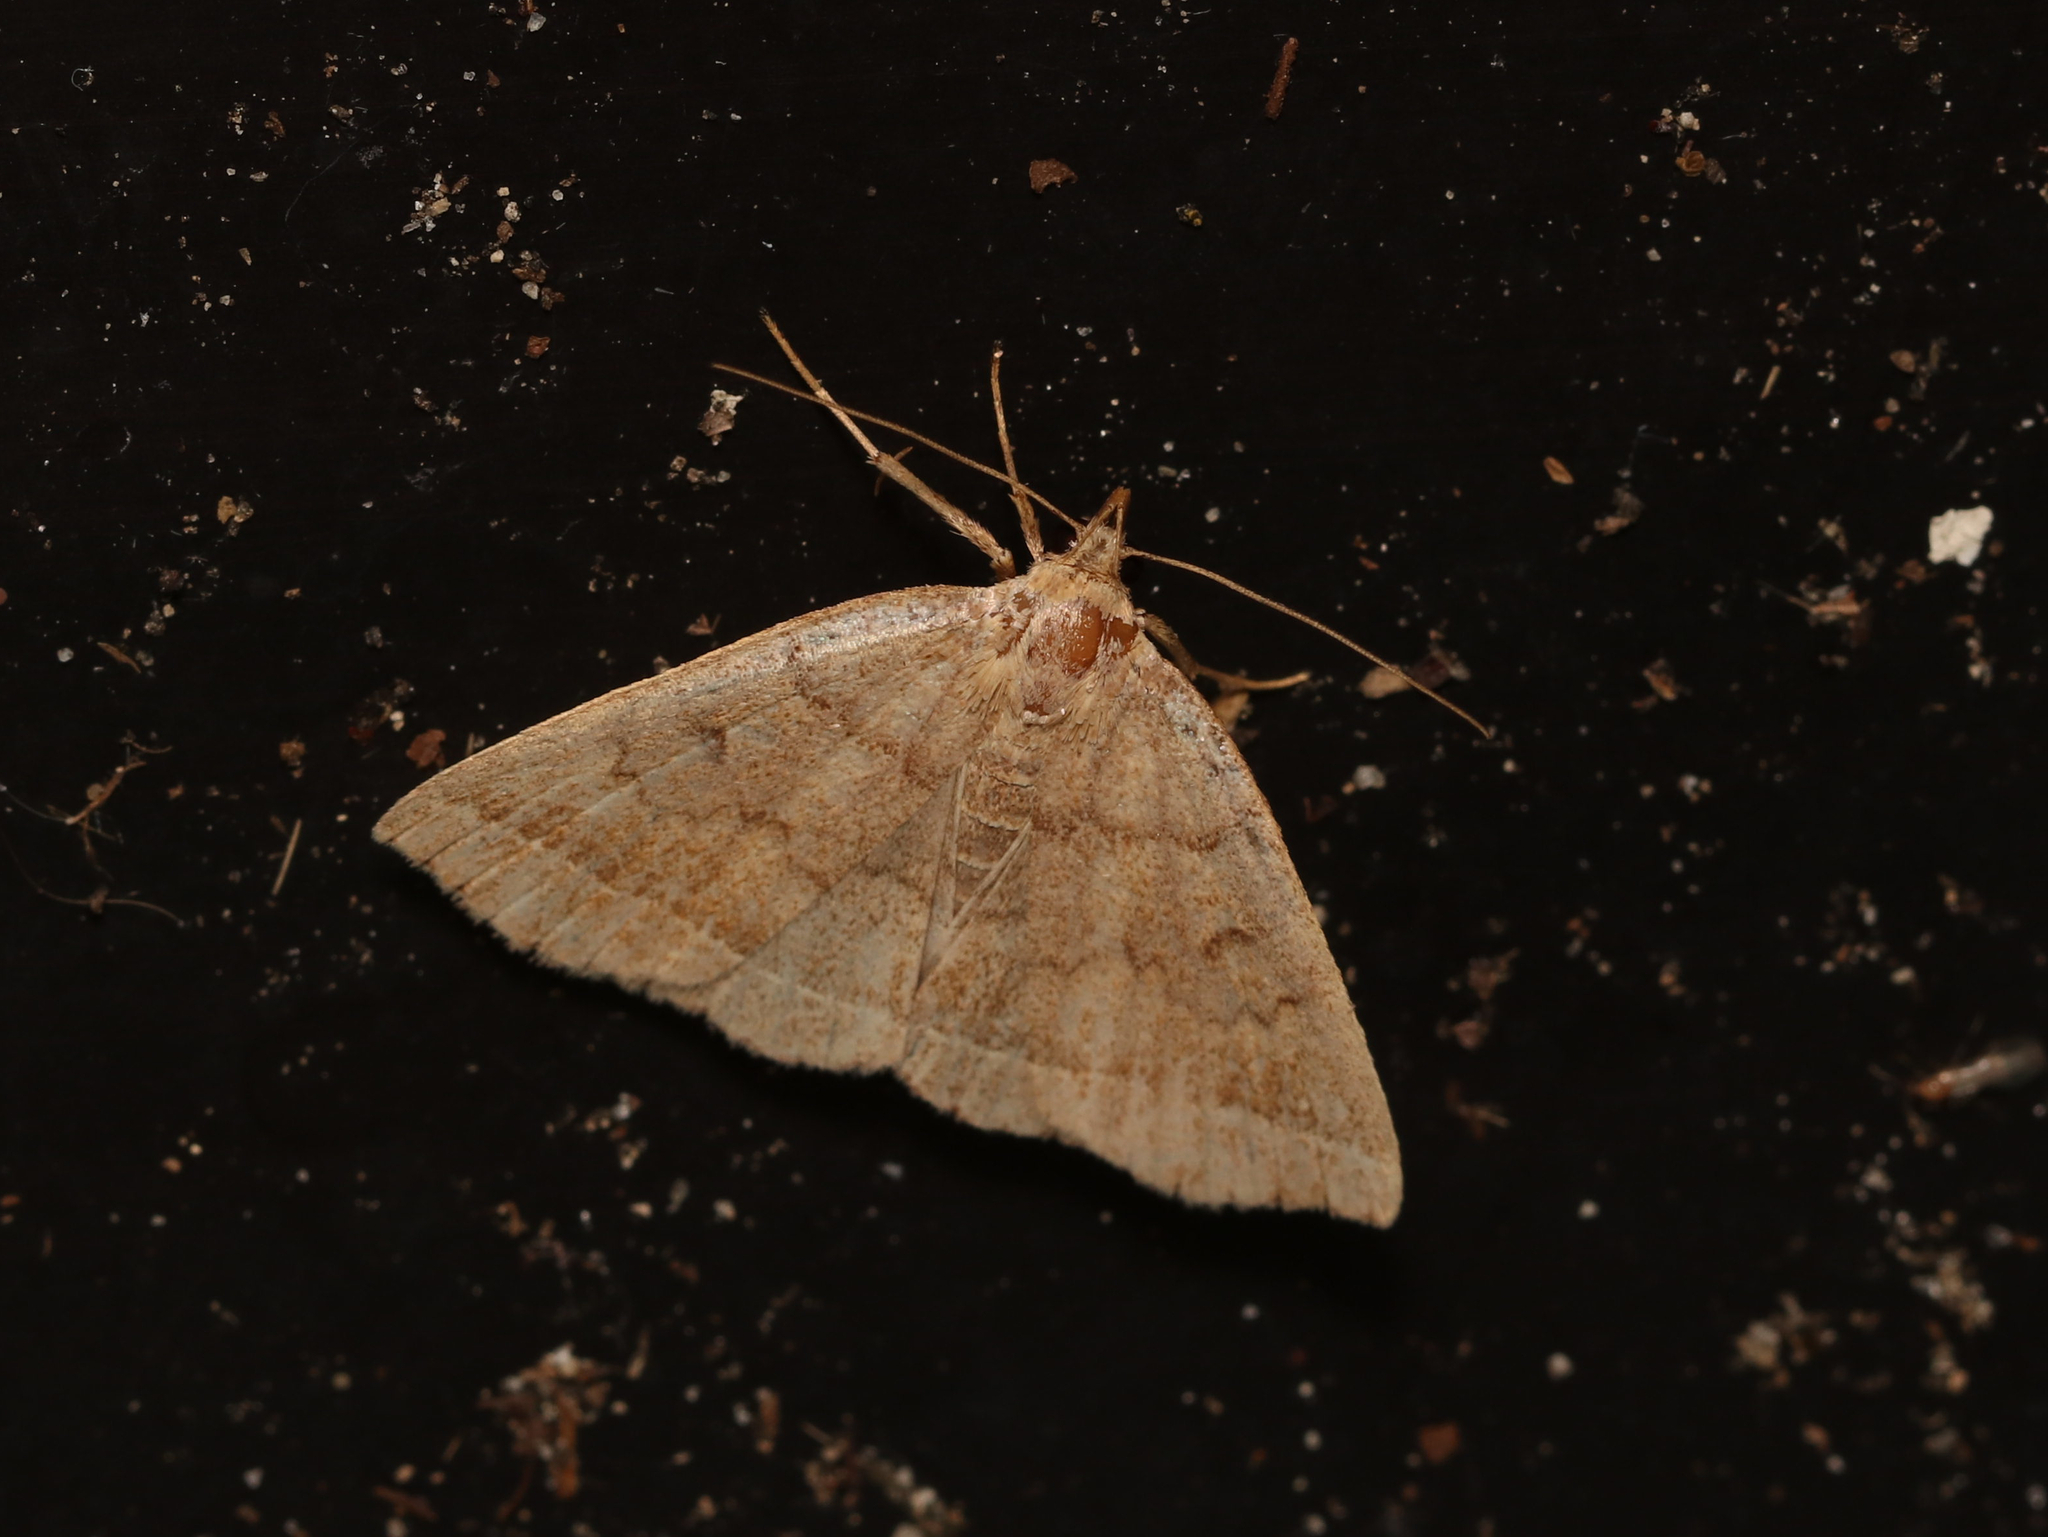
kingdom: Animalia
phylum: Arthropoda
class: Insecta
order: Lepidoptera
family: Erebidae
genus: Zanclognatha
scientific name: Zanclognatha jacchusalis
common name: Yellowish zanclognatha
